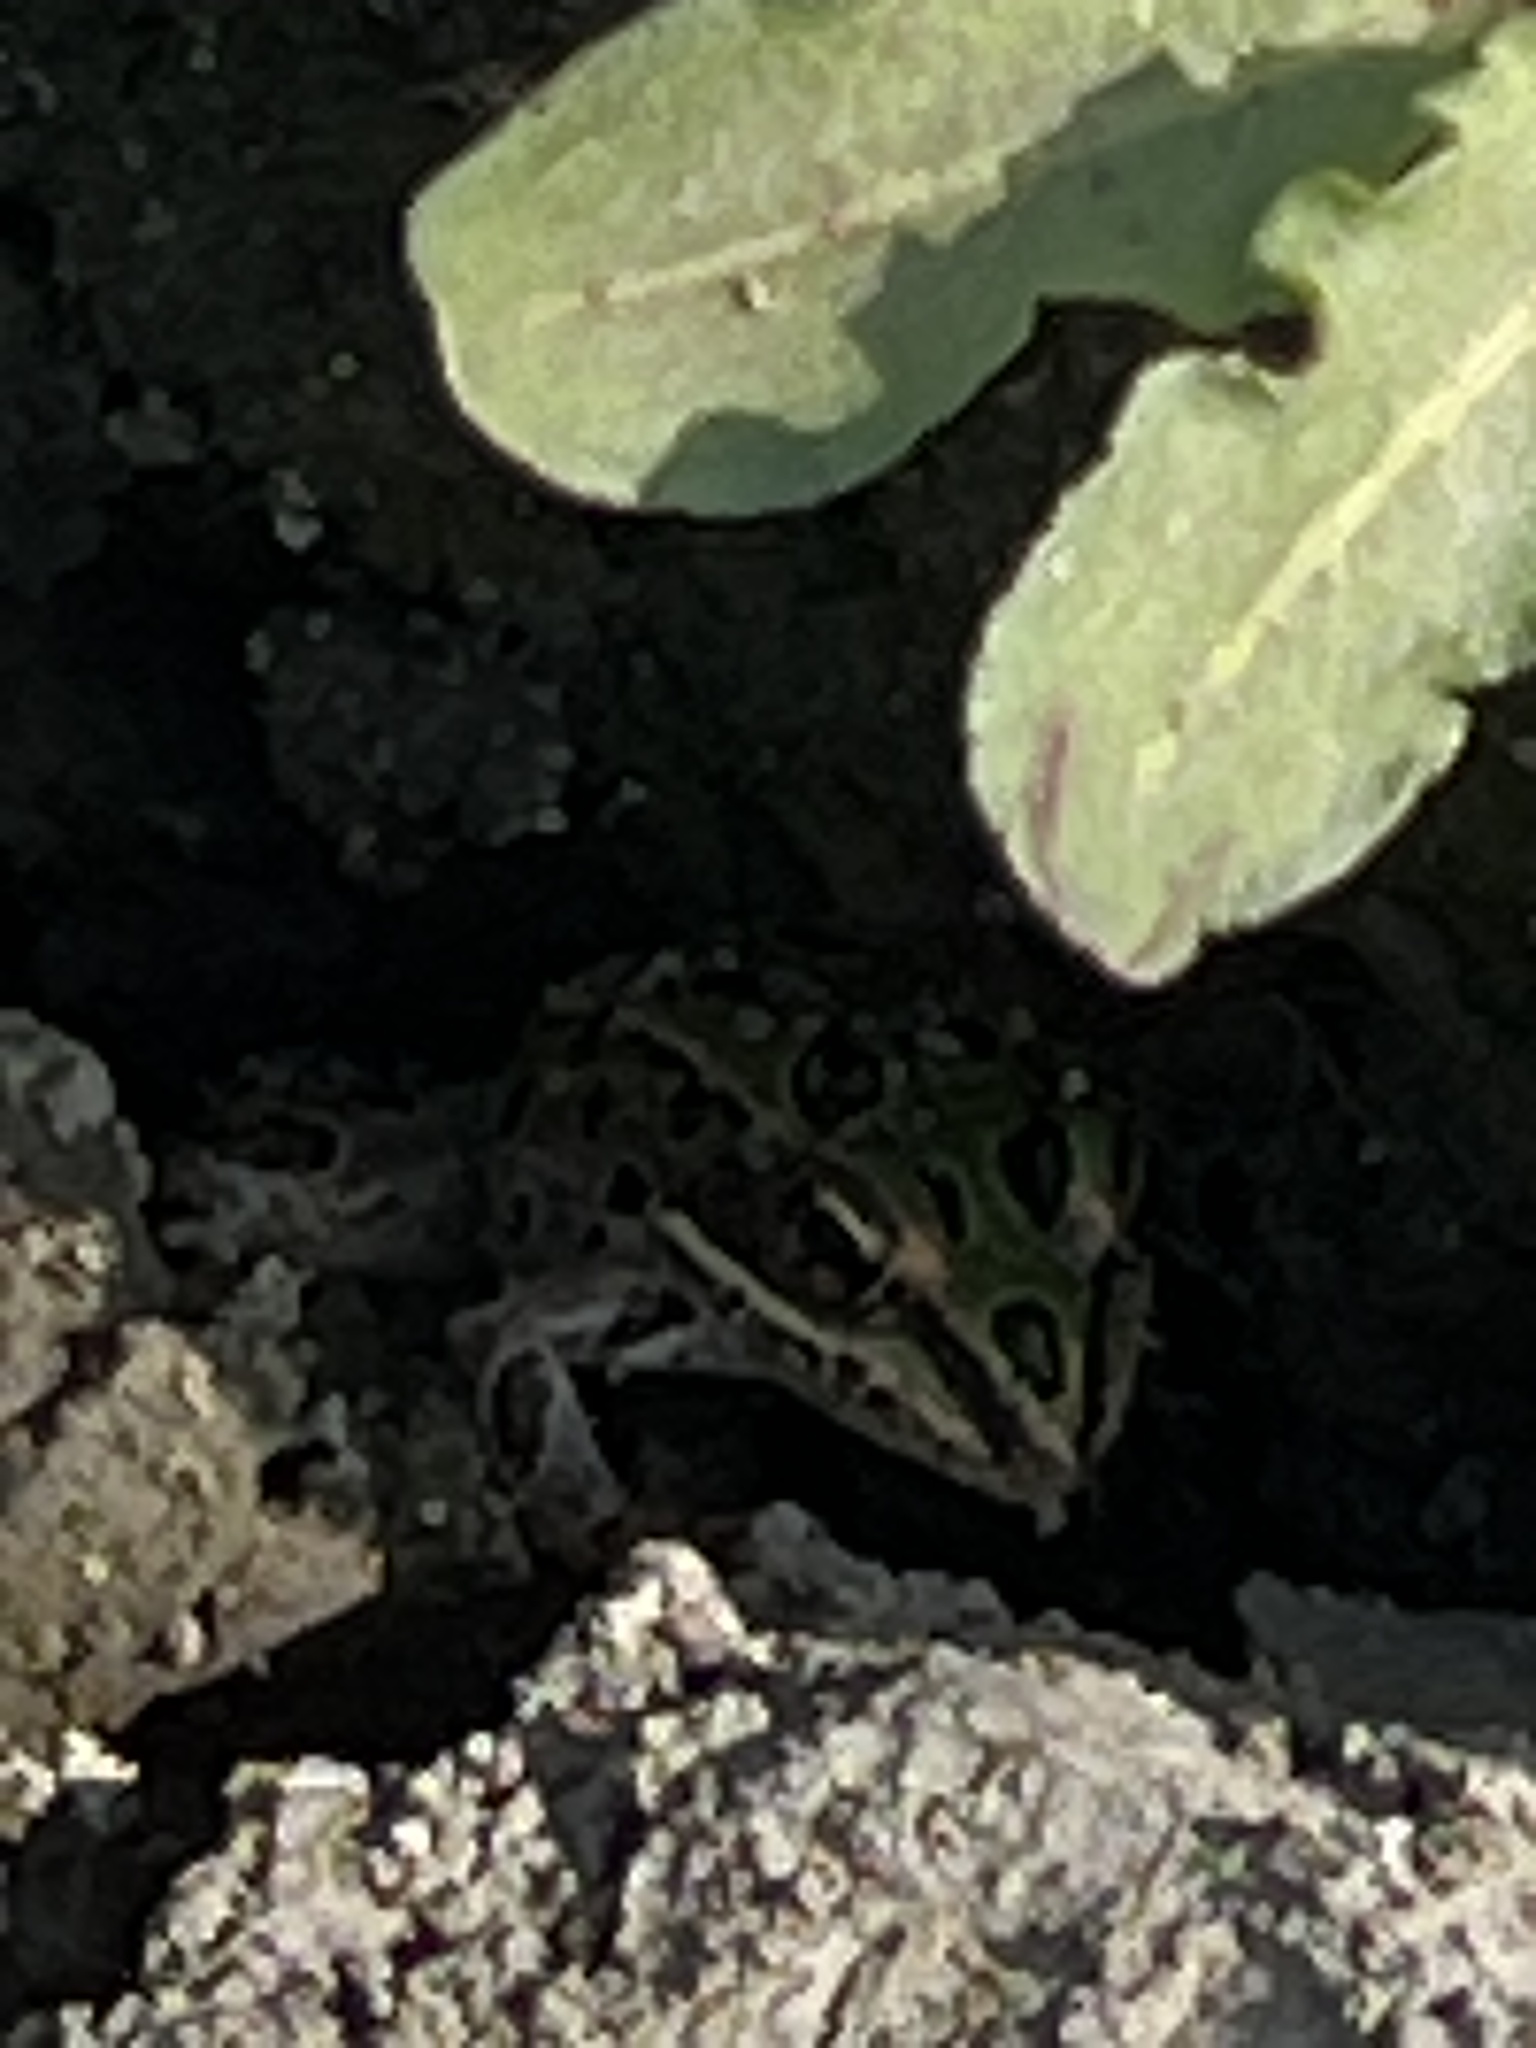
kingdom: Animalia
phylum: Chordata
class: Amphibia
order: Anura
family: Ranidae
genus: Lithobates
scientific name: Lithobates pipiens
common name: Northern leopard frog
